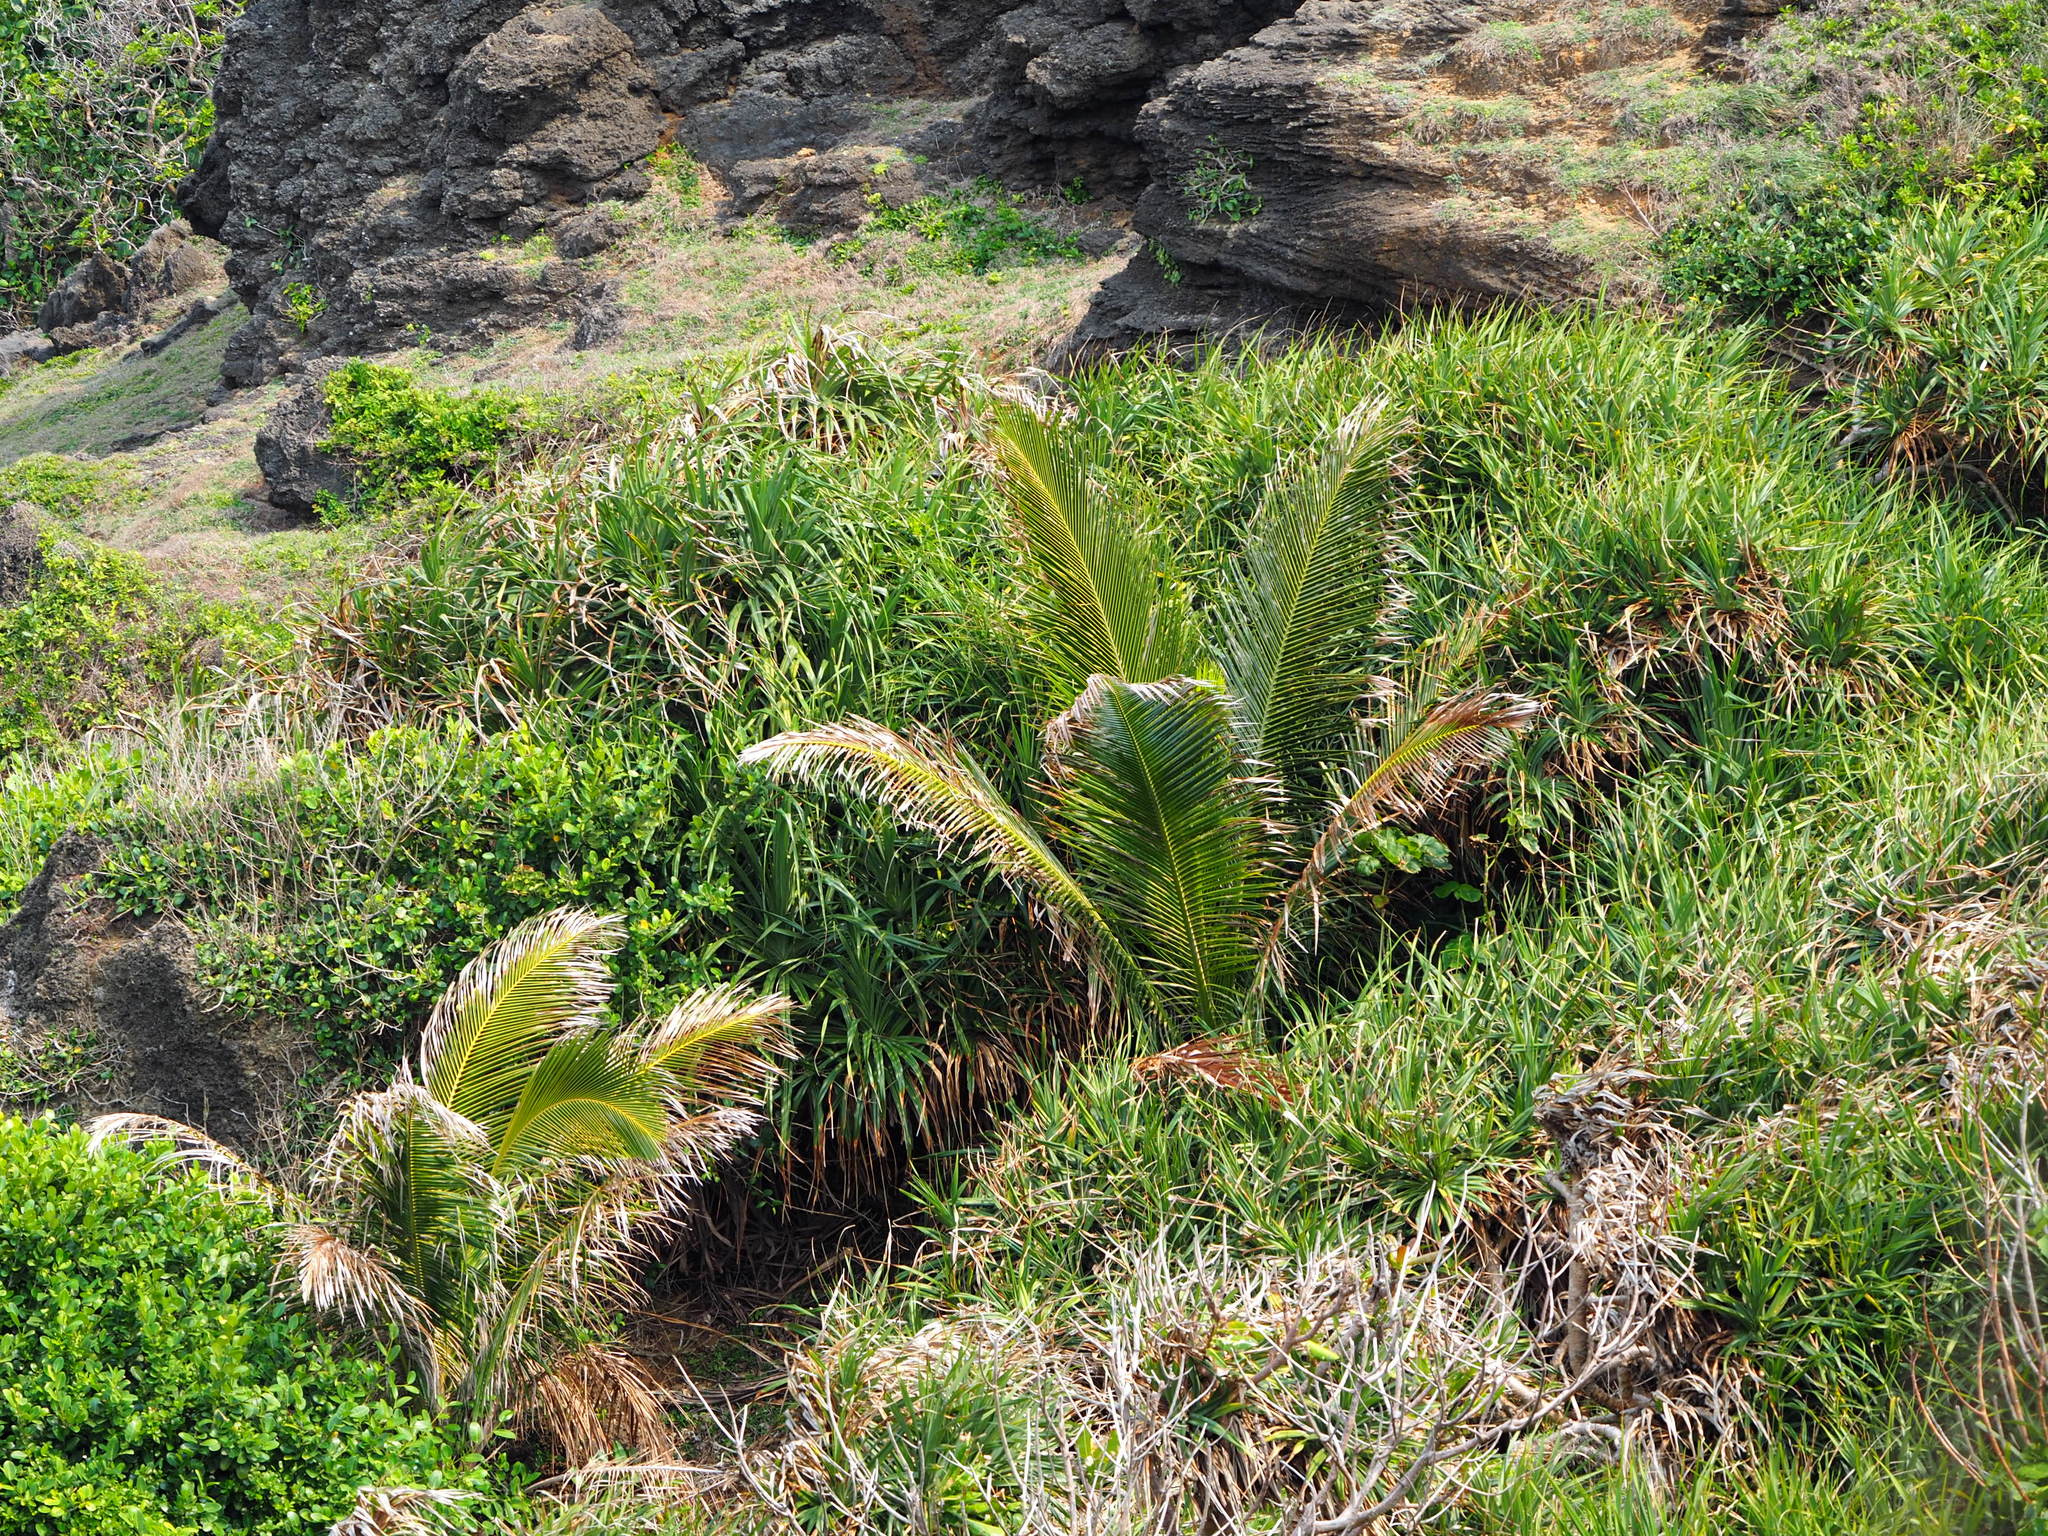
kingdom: Plantae
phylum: Tracheophyta
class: Liliopsida
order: Arecales
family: Arecaceae
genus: Cocos
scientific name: Cocos nucifera
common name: Coconut palm
